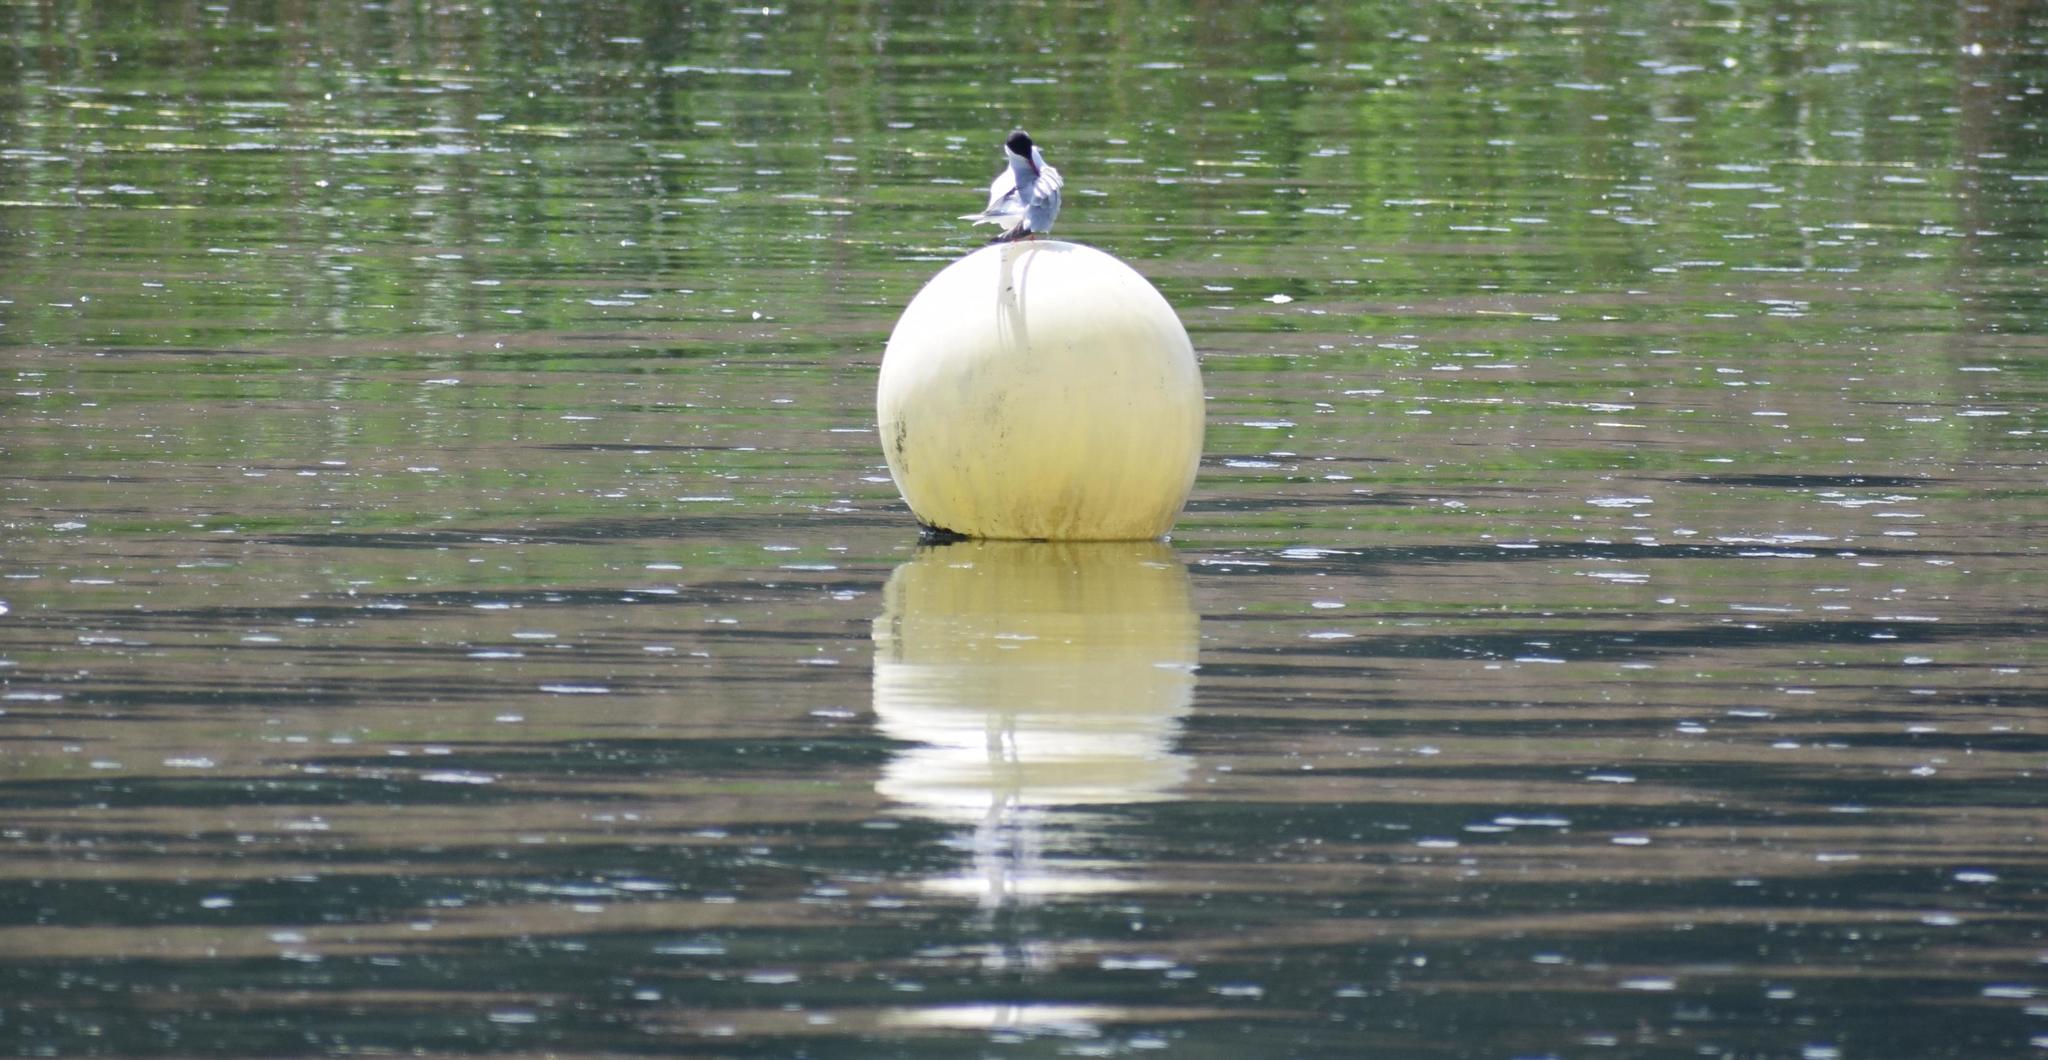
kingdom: Animalia
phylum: Chordata
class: Aves
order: Charadriiformes
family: Laridae
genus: Sterna
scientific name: Sterna hirundo
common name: Common tern
